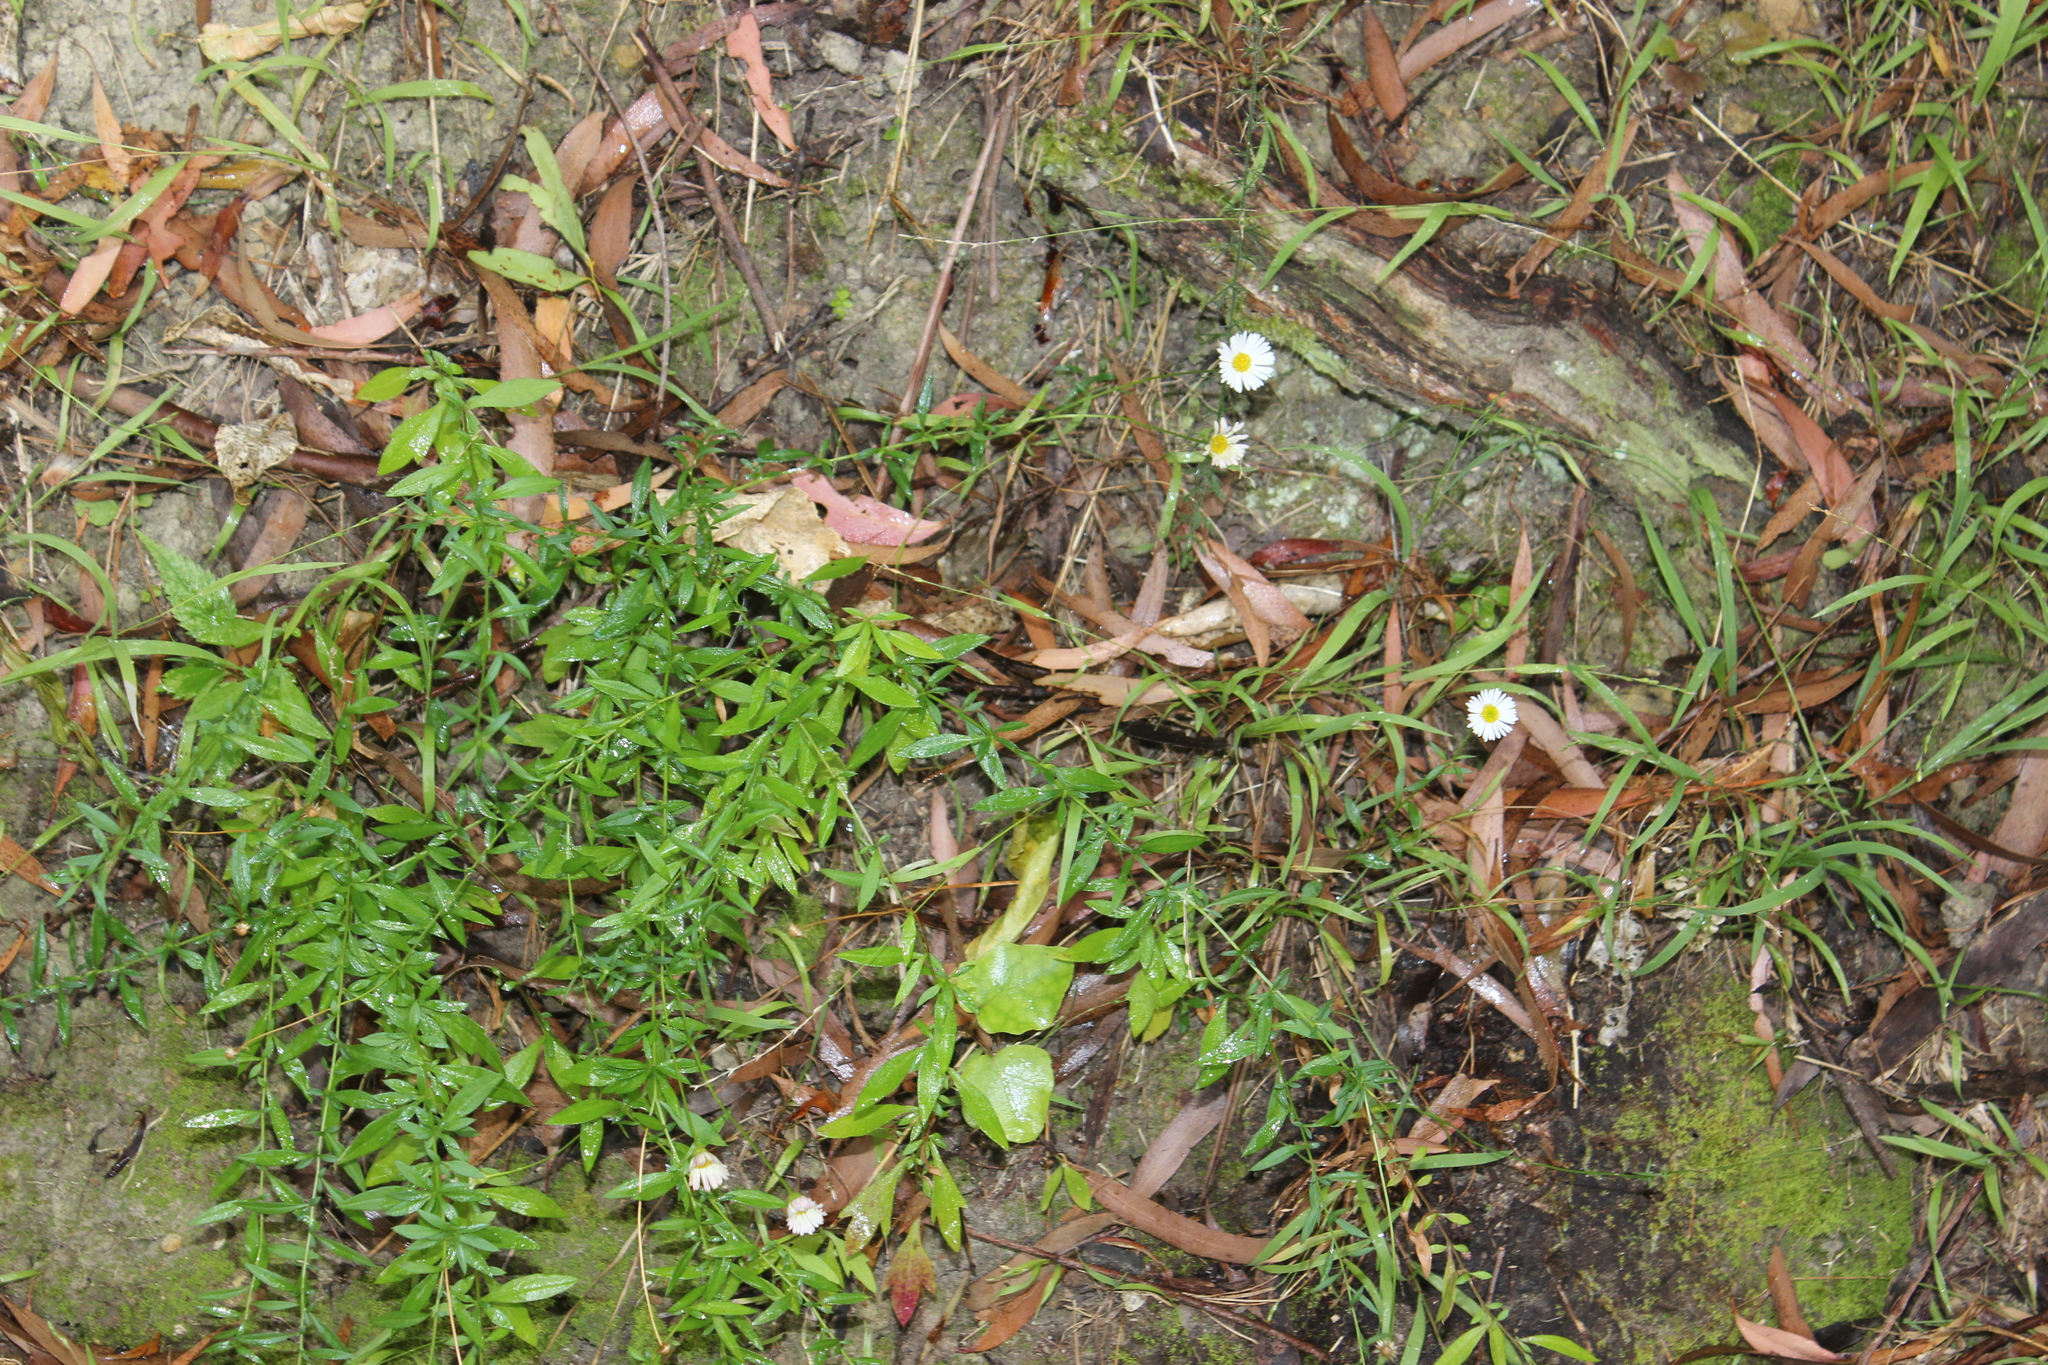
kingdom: Plantae
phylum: Tracheophyta
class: Magnoliopsida
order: Asterales
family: Asteraceae
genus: Erigeron
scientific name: Erigeron karvinskianus
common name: Mexican fleabane
